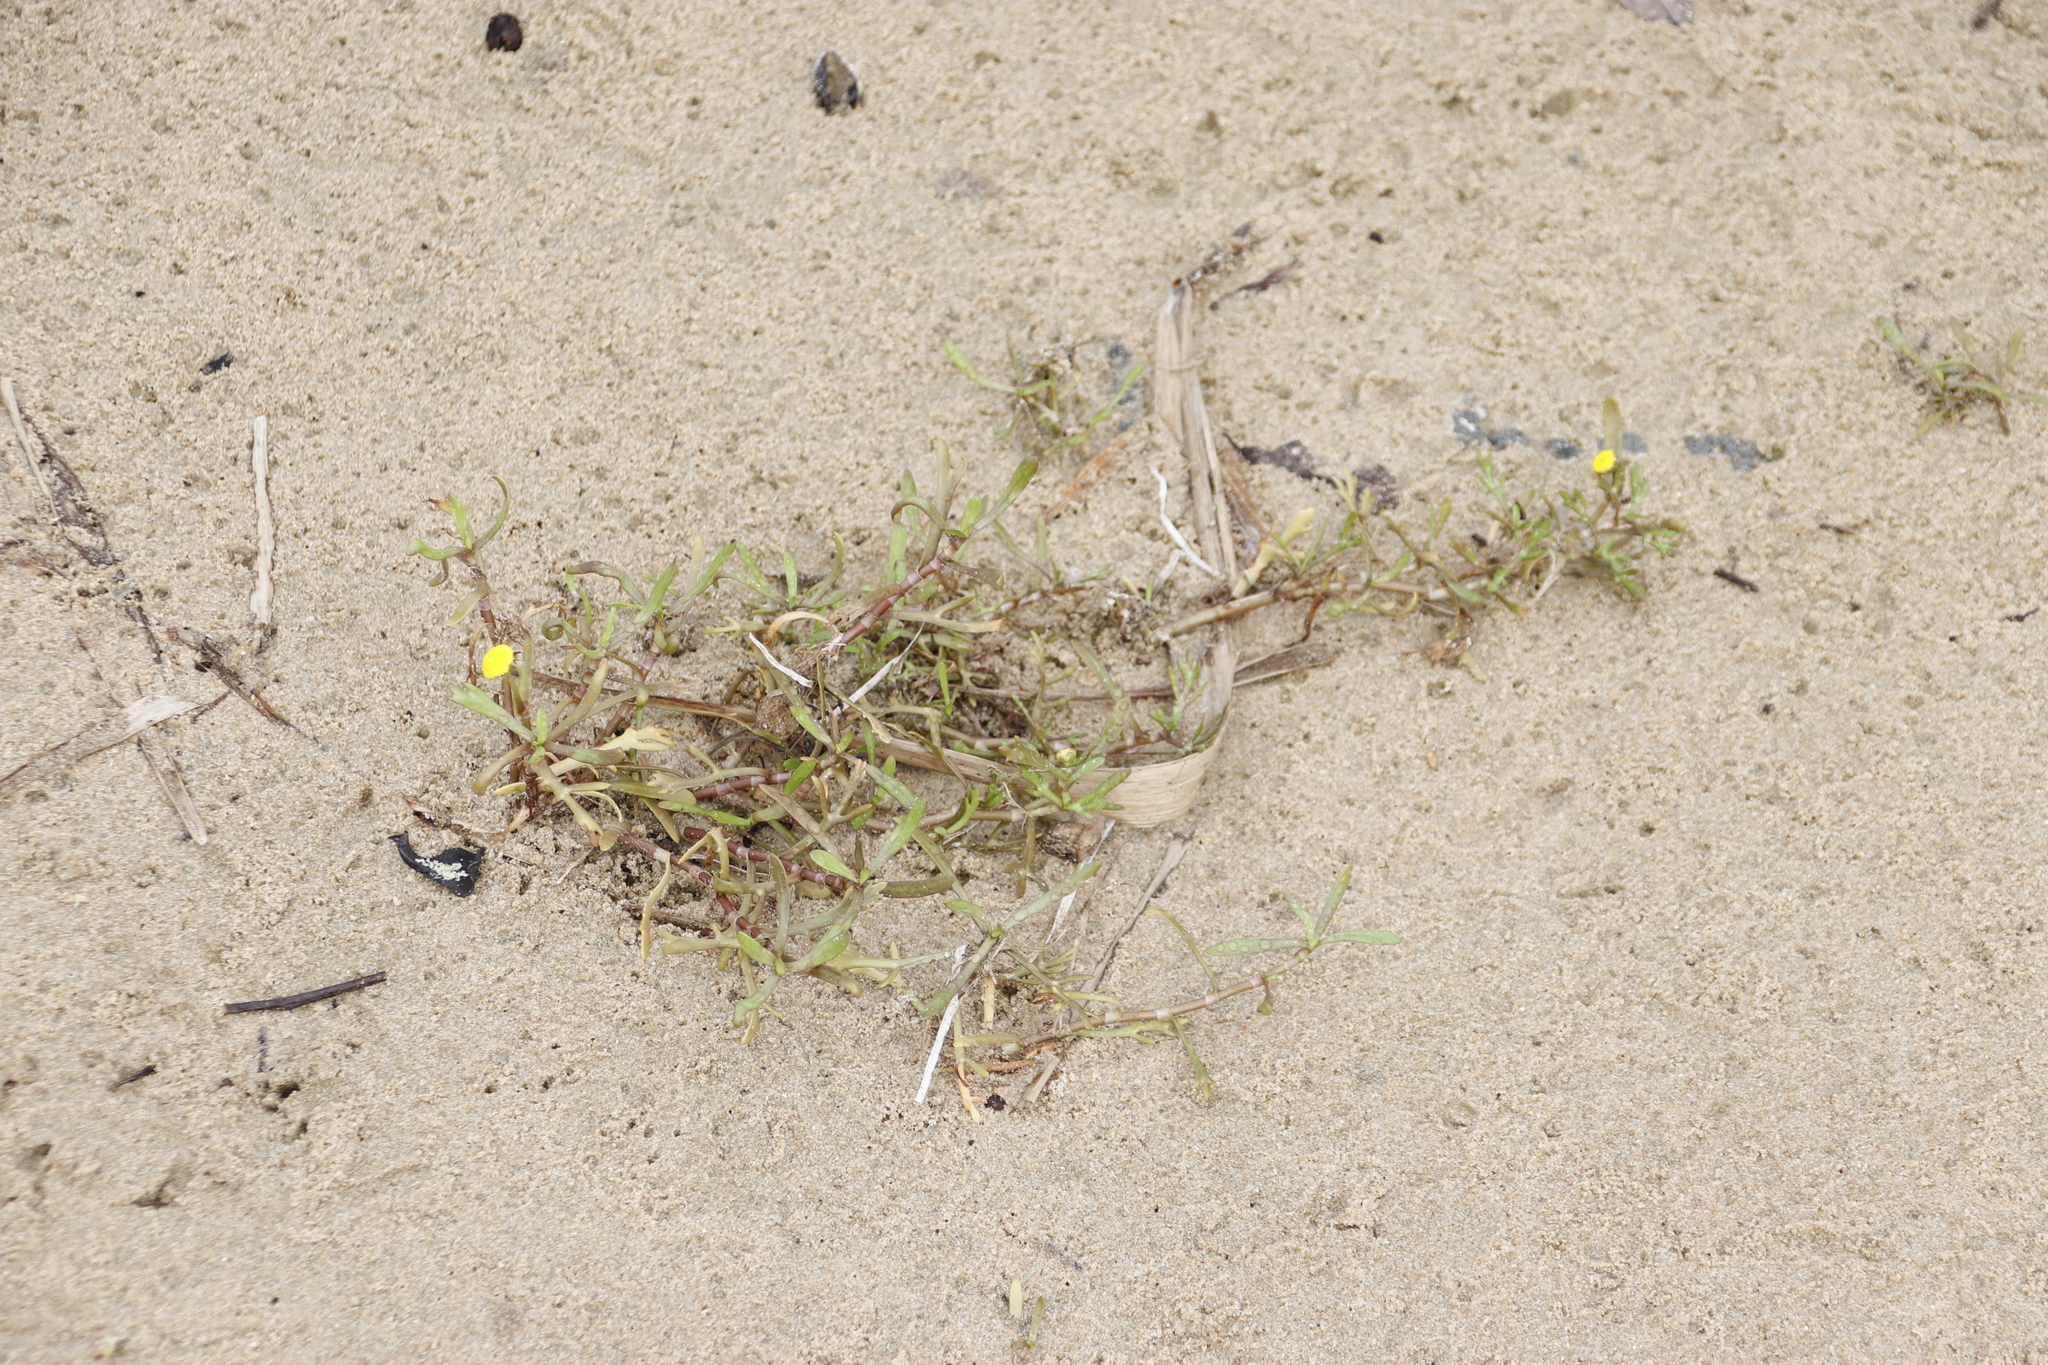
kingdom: Plantae
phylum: Tracheophyta
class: Magnoliopsida
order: Asterales
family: Asteraceae
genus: Cotula
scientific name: Cotula coronopifolia
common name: Buttonweed
